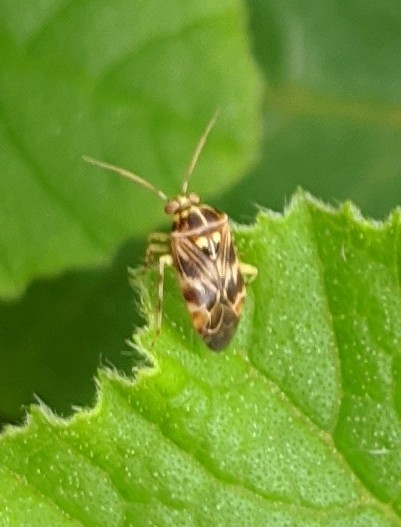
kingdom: Animalia
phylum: Arthropoda
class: Insecta
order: Hemiptera
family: Miridae
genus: Tropidosteptes
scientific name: Tropidosteptes quercicola
